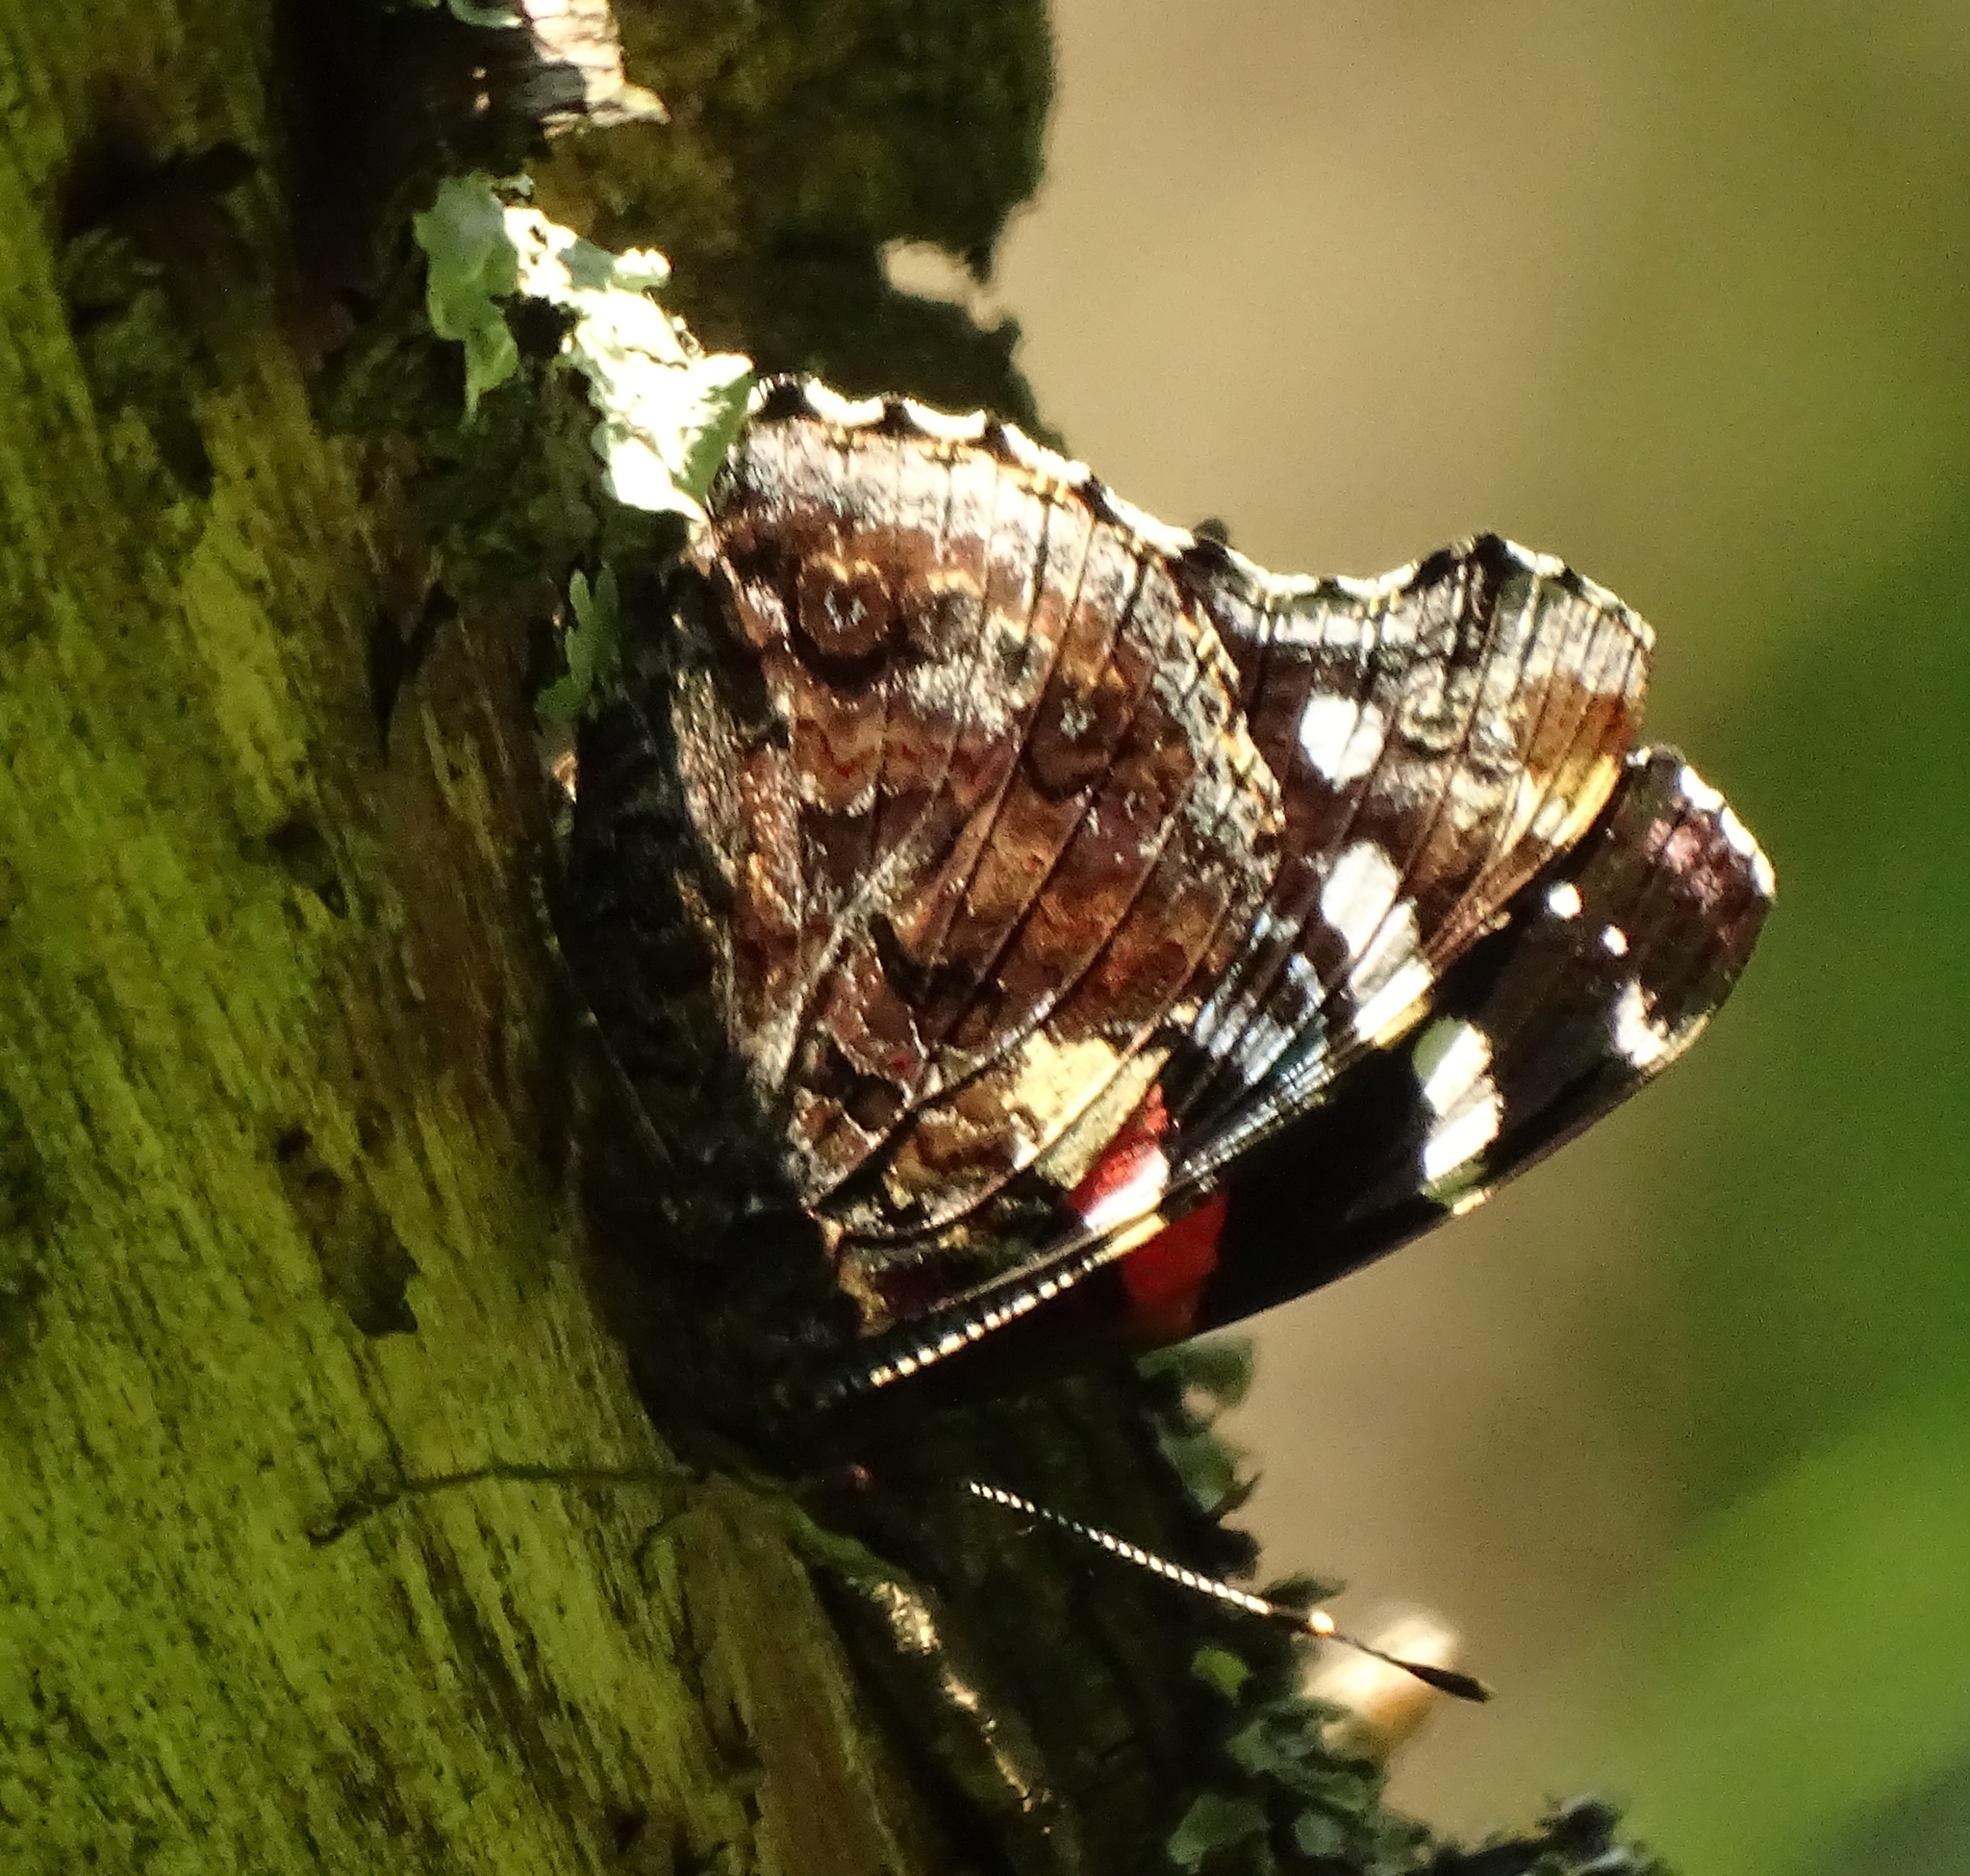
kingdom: Animalia
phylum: Arthropoda
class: Insecta
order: Lepidoptera
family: Nymphalidae
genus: Vanessa
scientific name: Vanessa atalanta
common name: Red admiral
